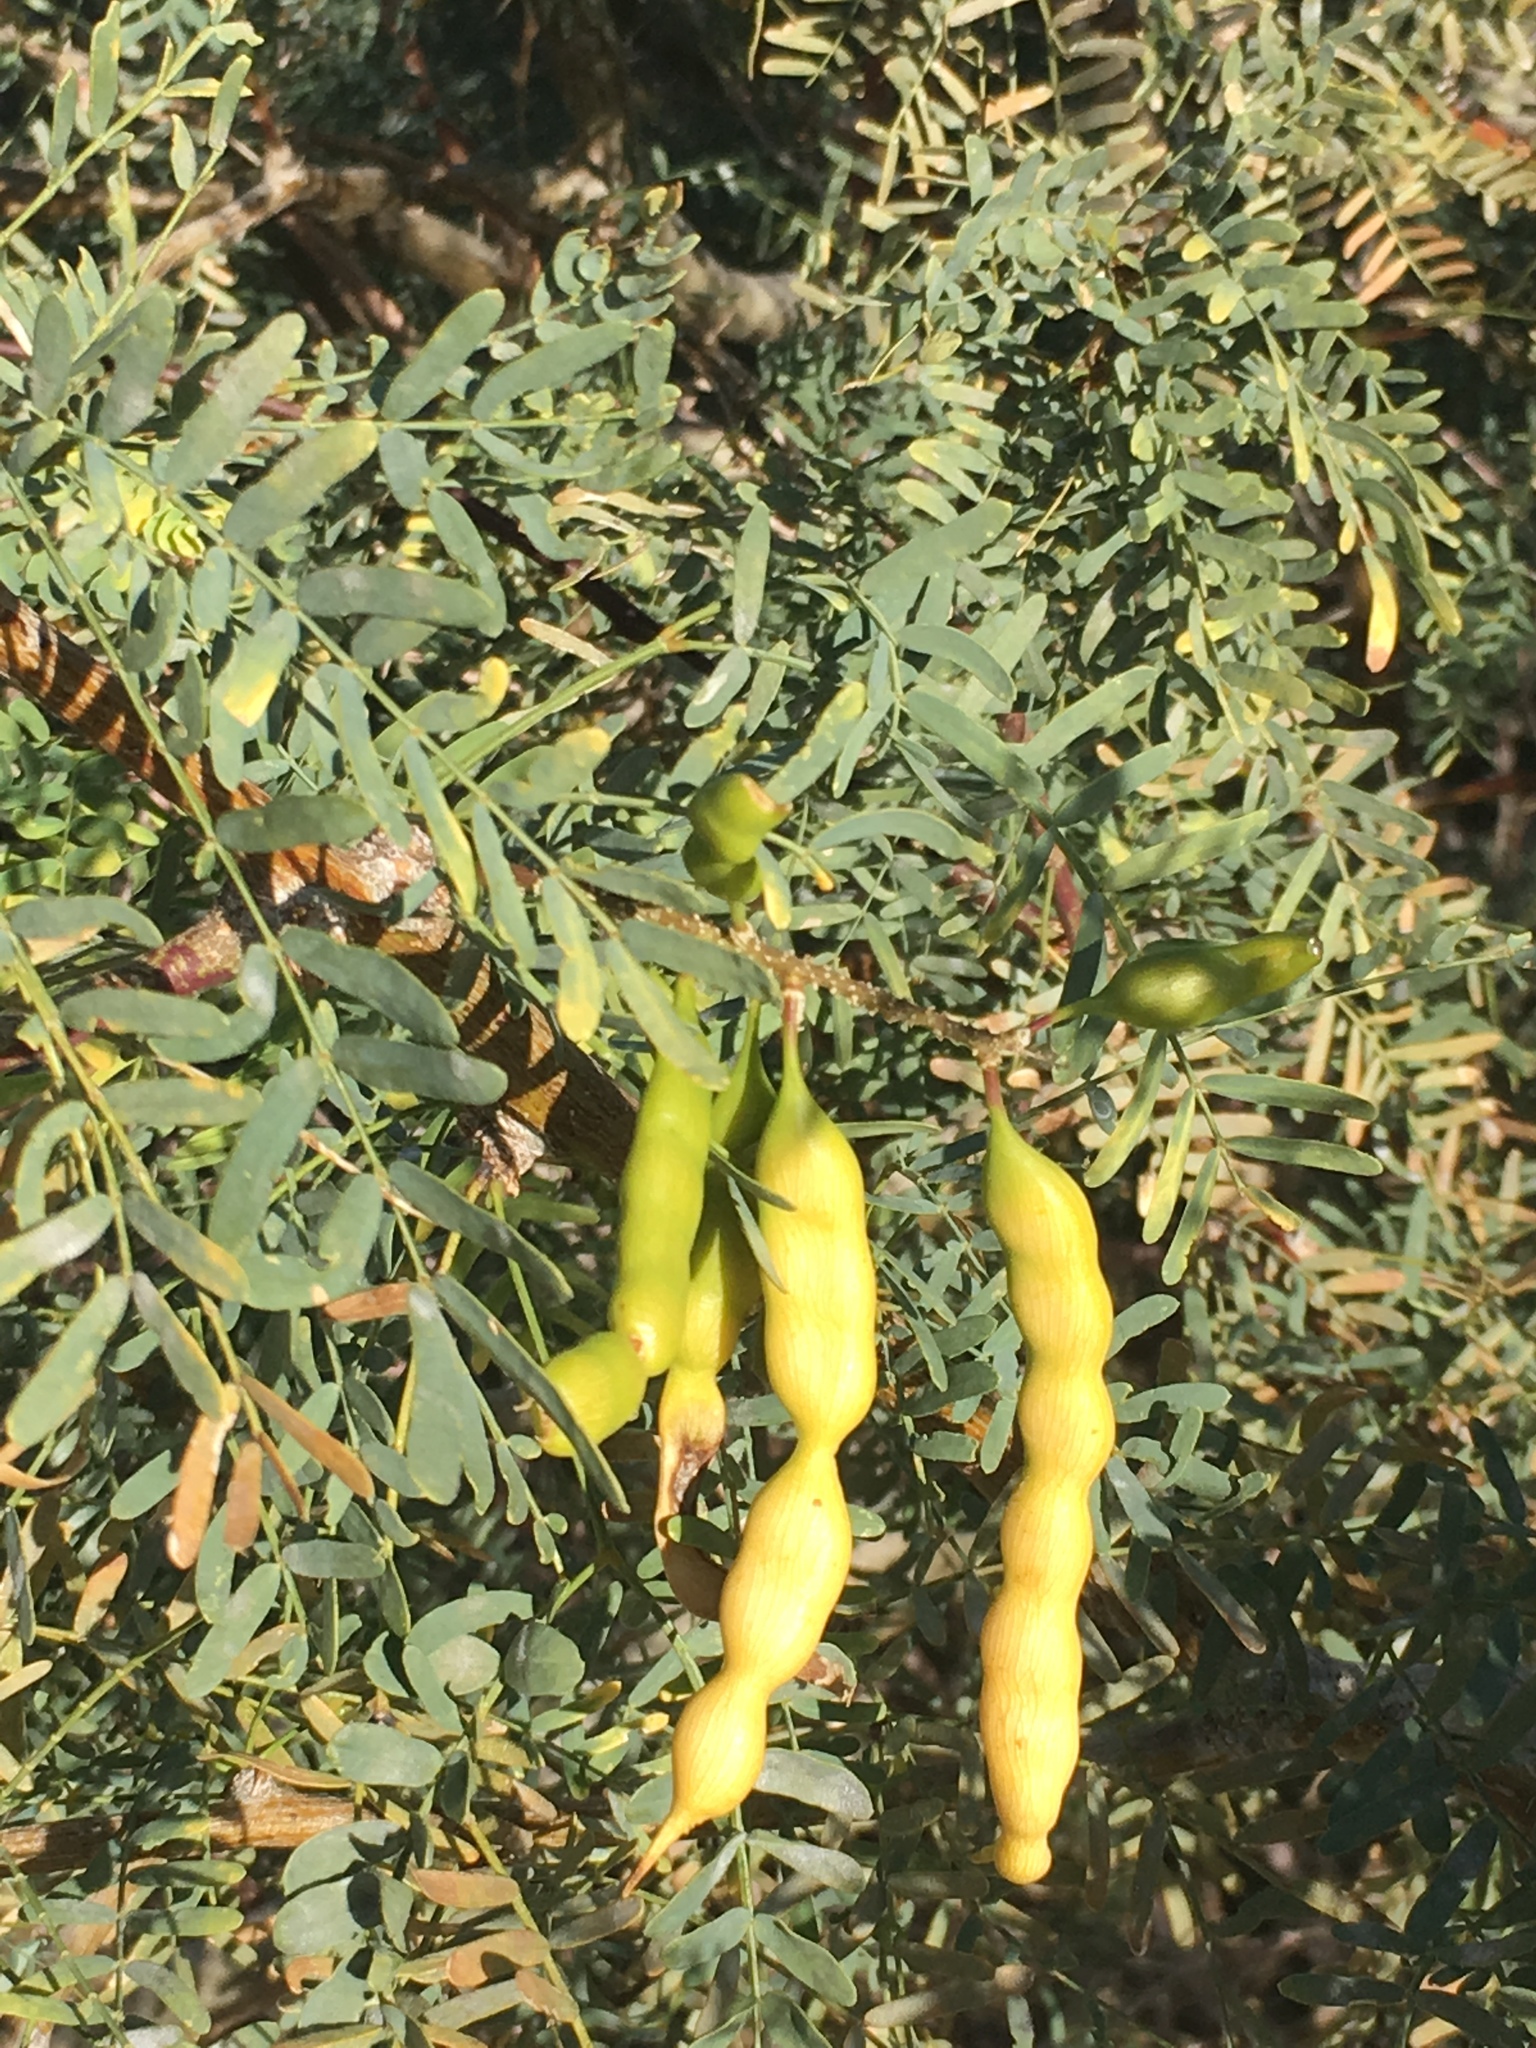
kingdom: Plantae
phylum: Tracheophyta
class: Magnoliopsida
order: Fabales
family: Fabaceae
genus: Prosopis
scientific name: Prosopis pubescens
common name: Screw-bean
